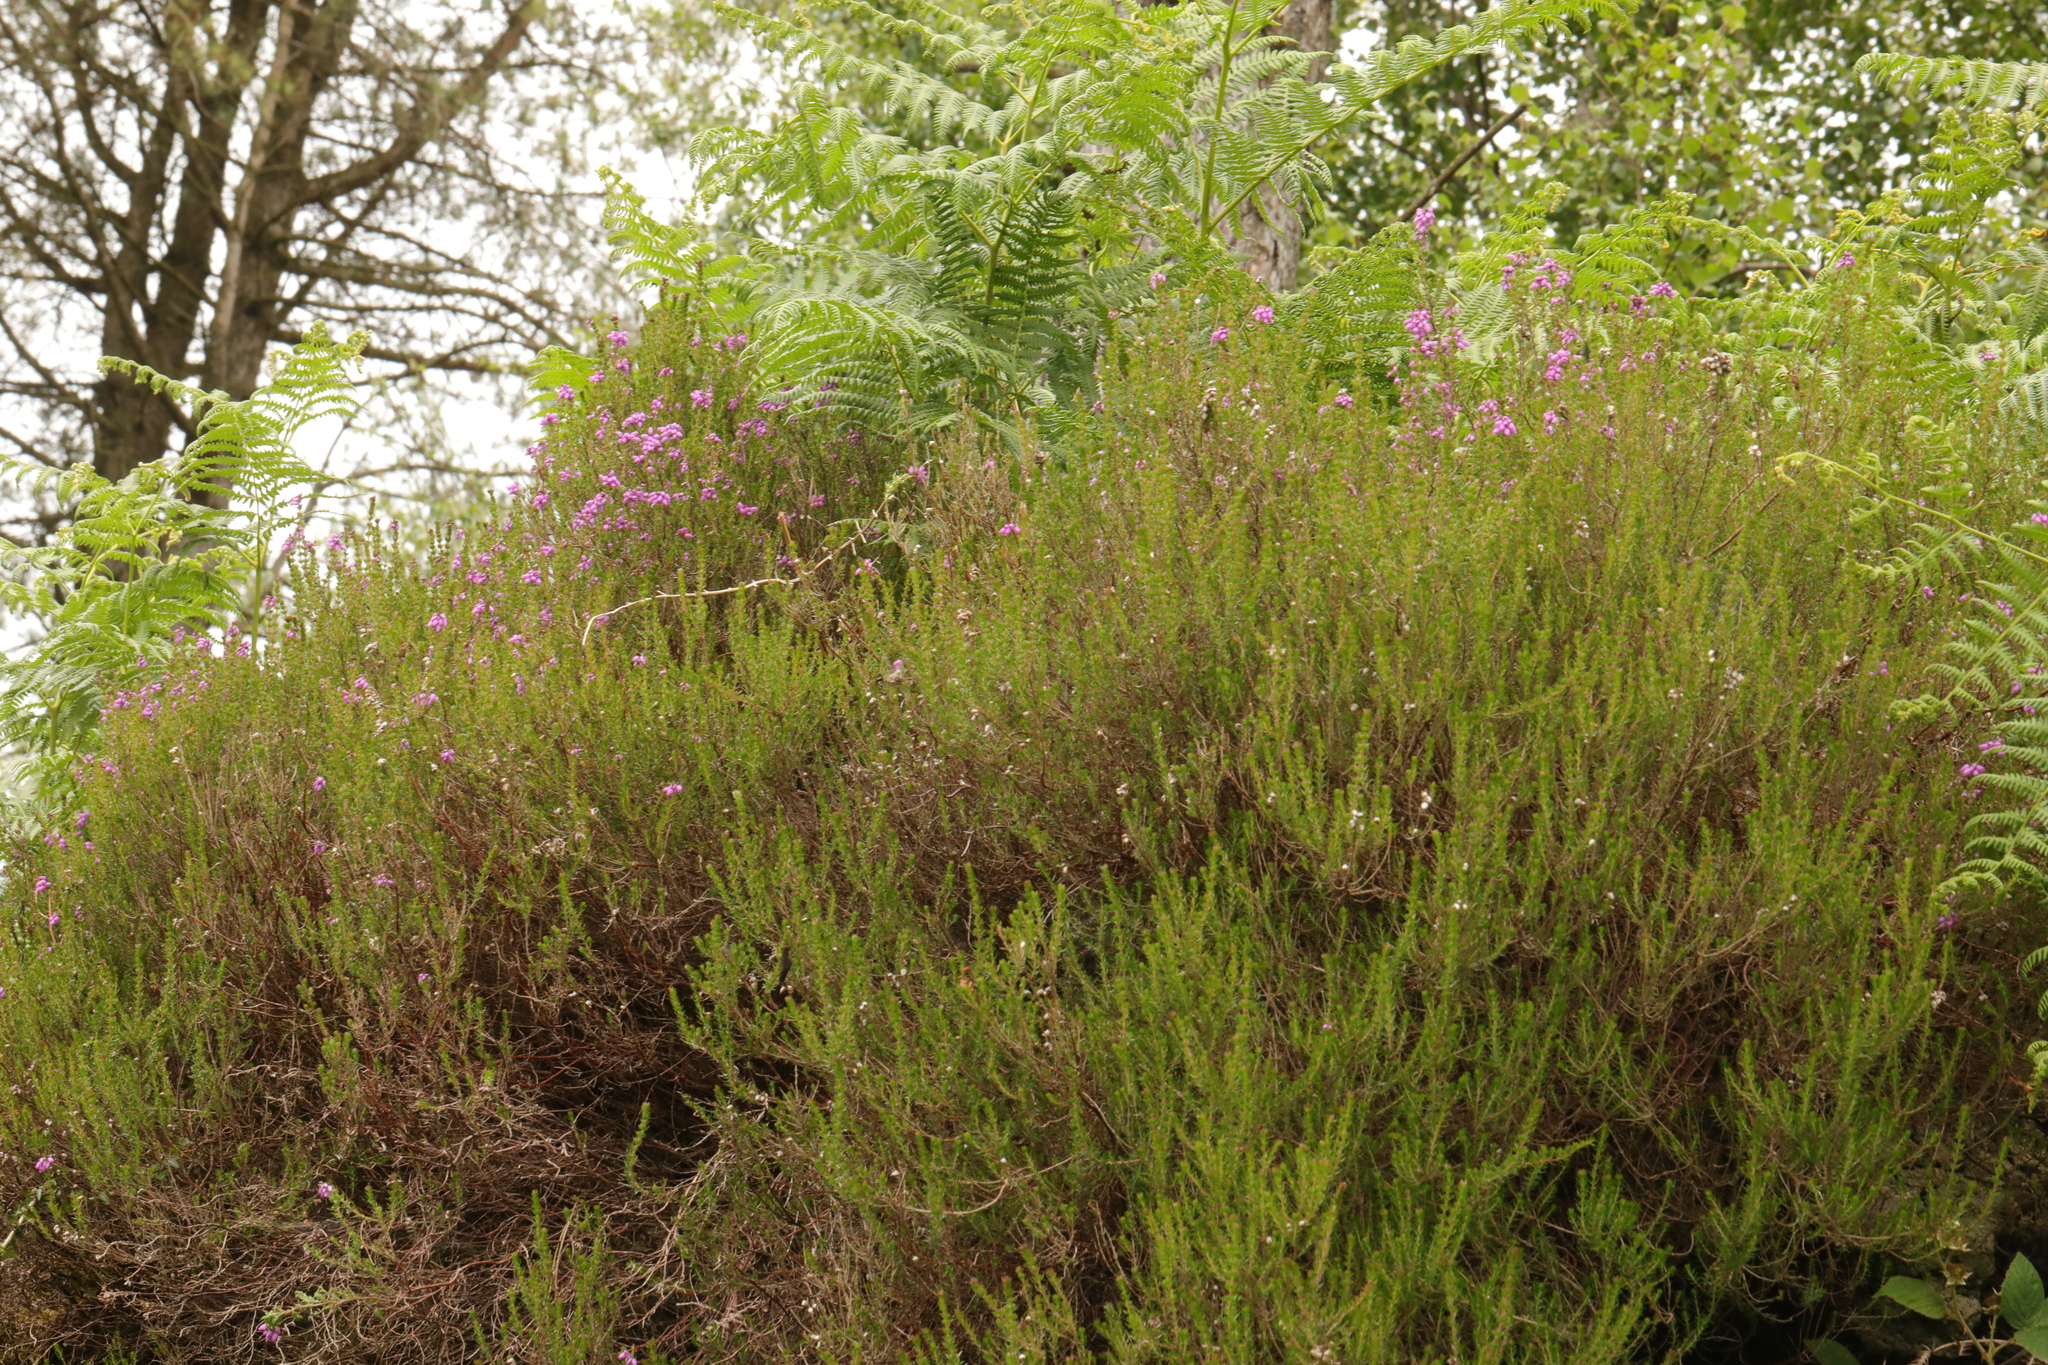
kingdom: Plantae
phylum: Tracheophyta
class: Magnoliopsida
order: Ericales
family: Ericaceae
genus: Calluna
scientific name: Calluna vulgaris
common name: Heather
